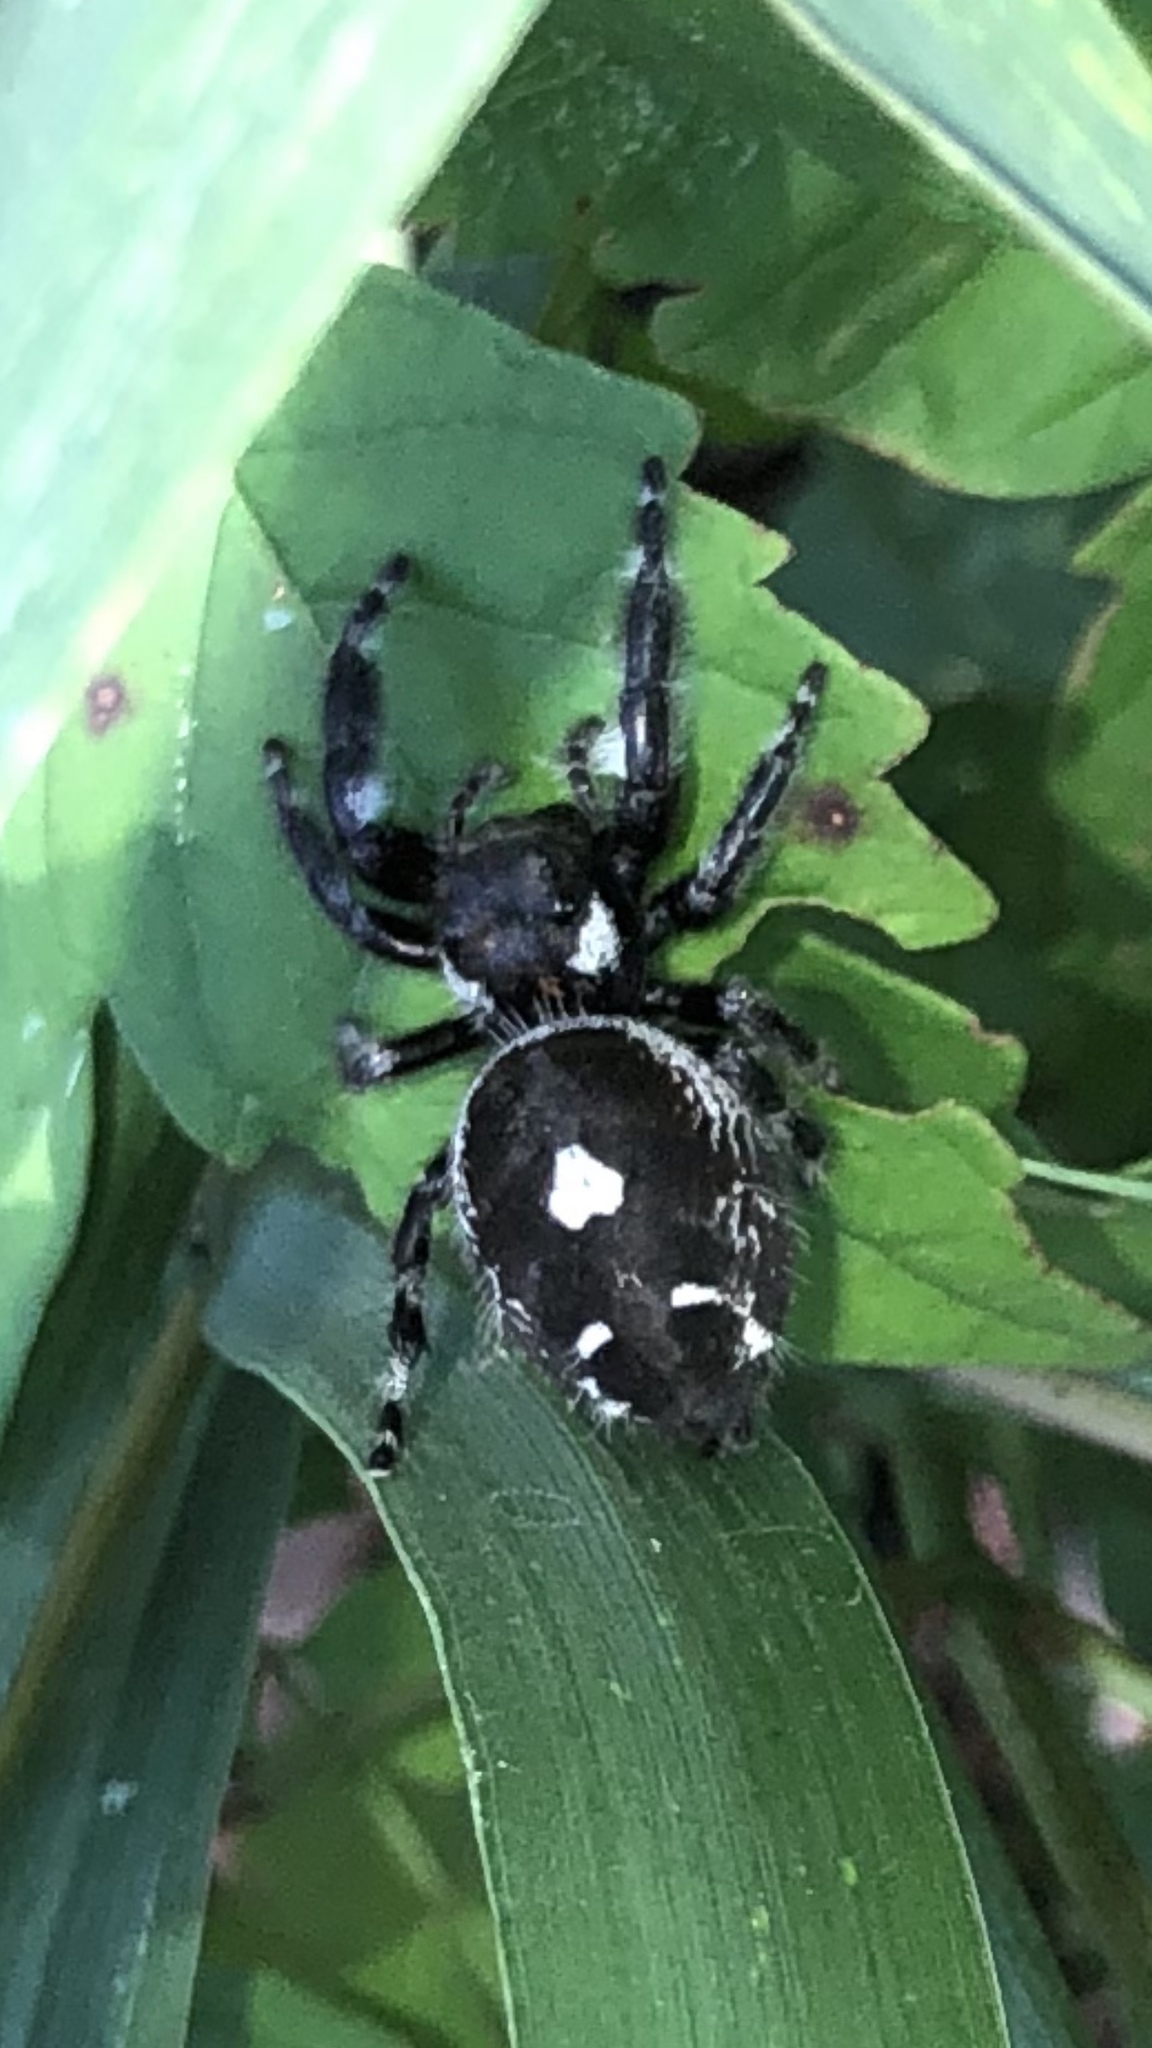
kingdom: Animalia
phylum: Arthropoda
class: Arachnida
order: Araneae
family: Salticidae
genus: Phidippus
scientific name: Phidippus audax
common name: Bold jumper
